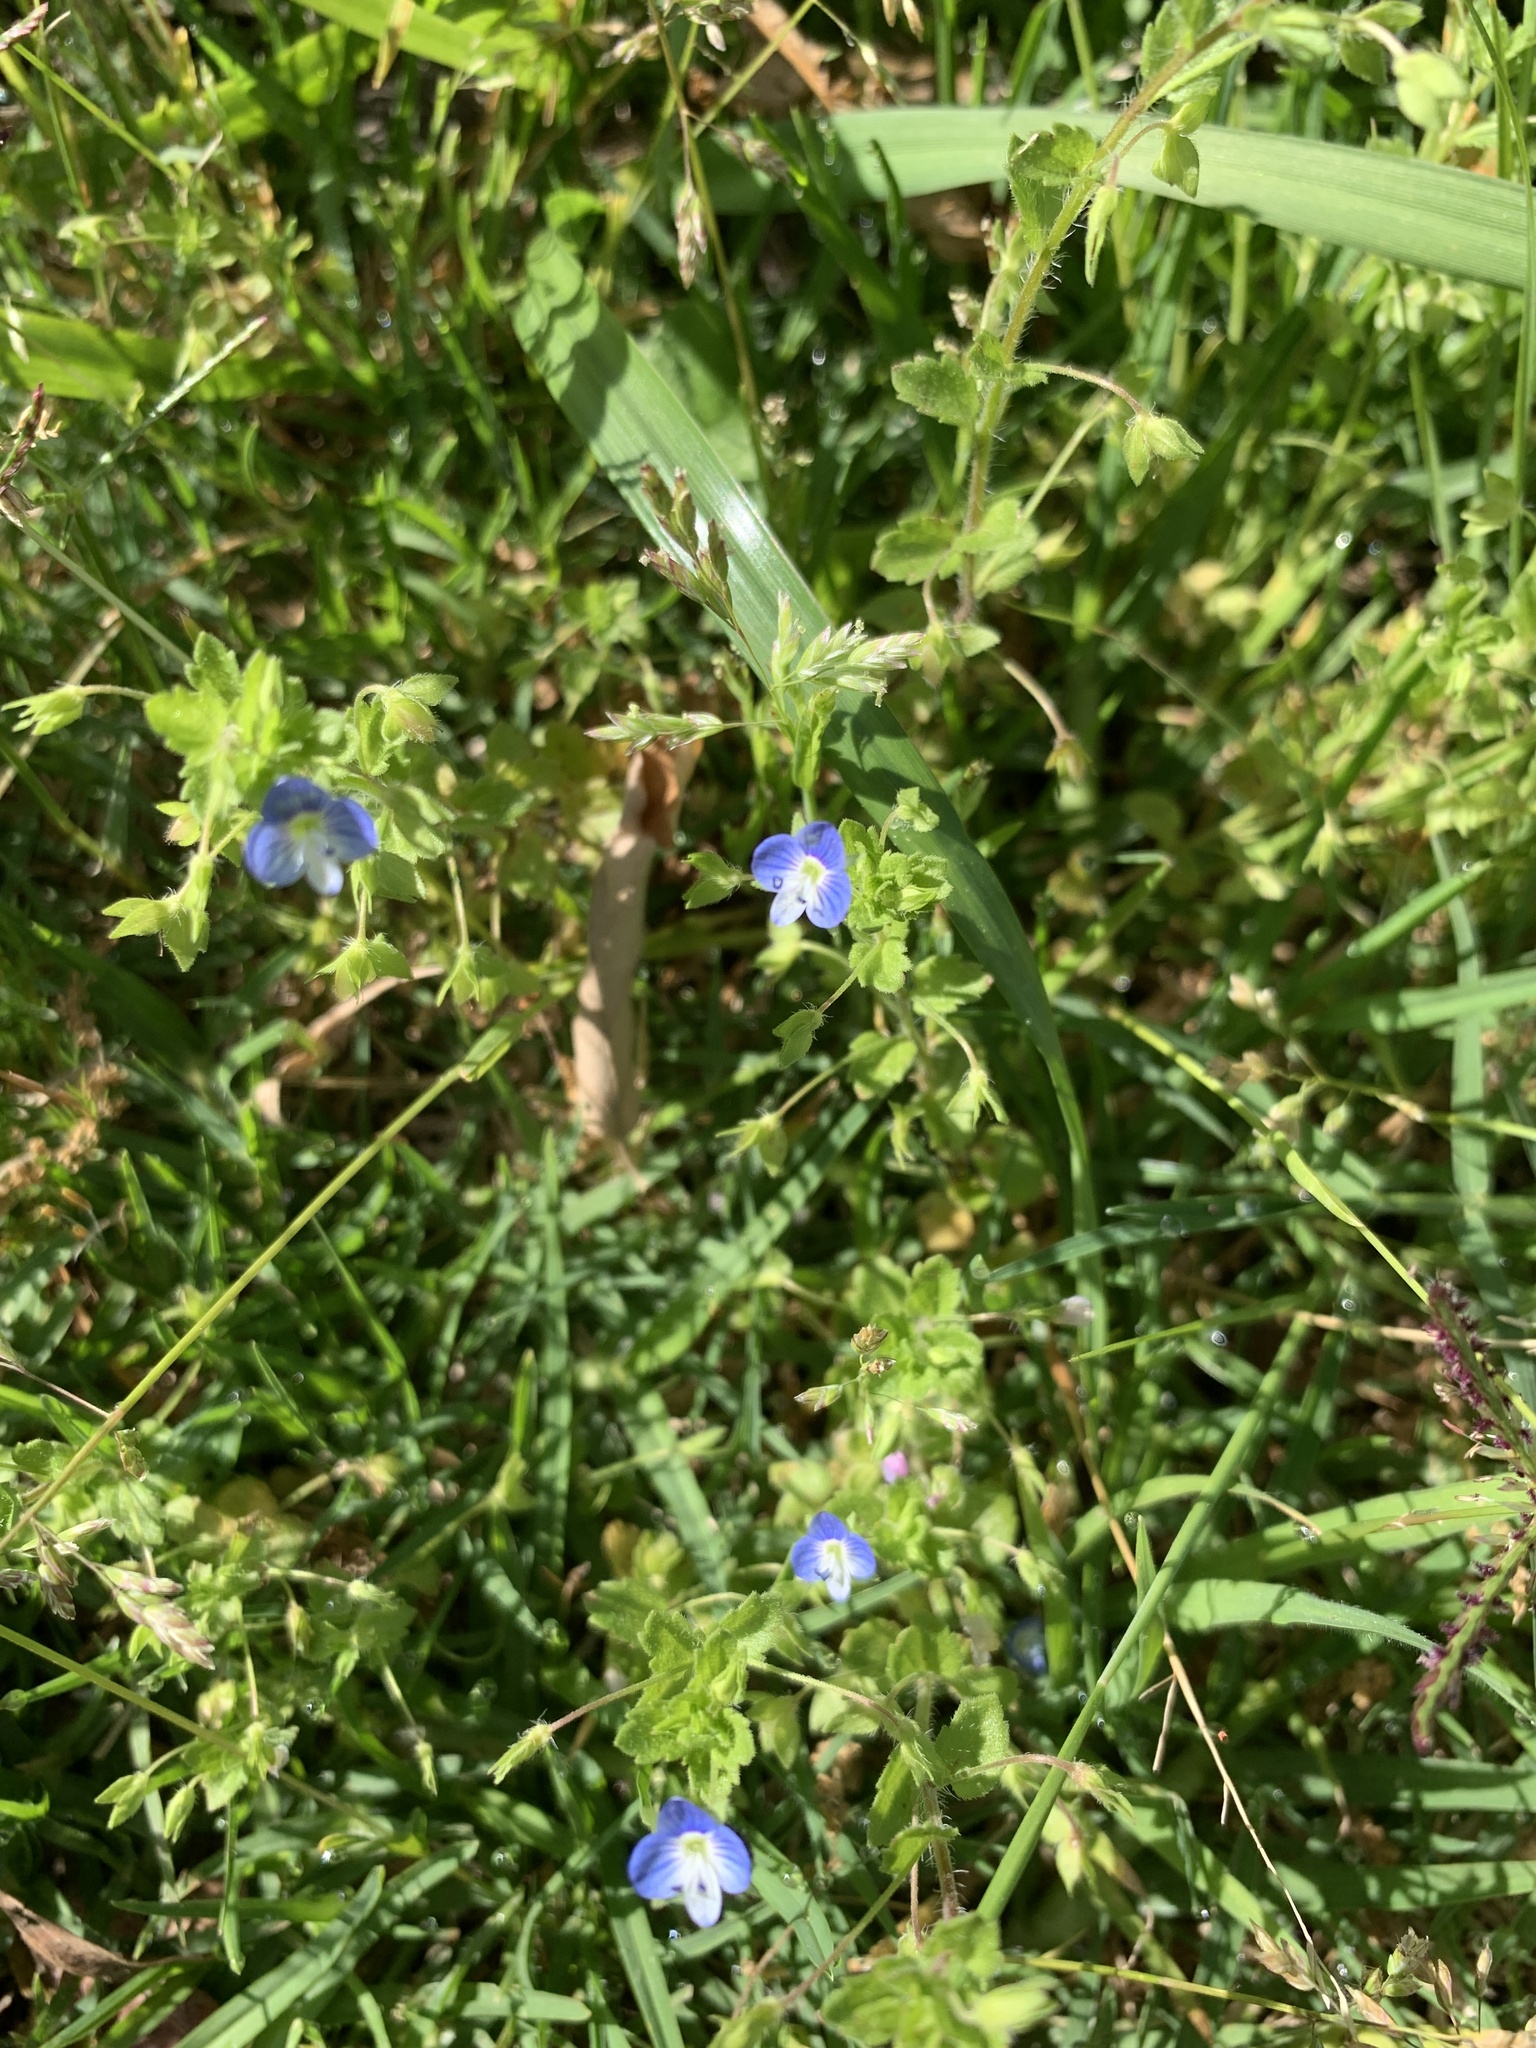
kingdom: Plantae
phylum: Tracheophyta
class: Magnoliopsida
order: Lamiales
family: Plantaginaceae
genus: Veronica
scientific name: Veronica persica
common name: Common field-speedwell
